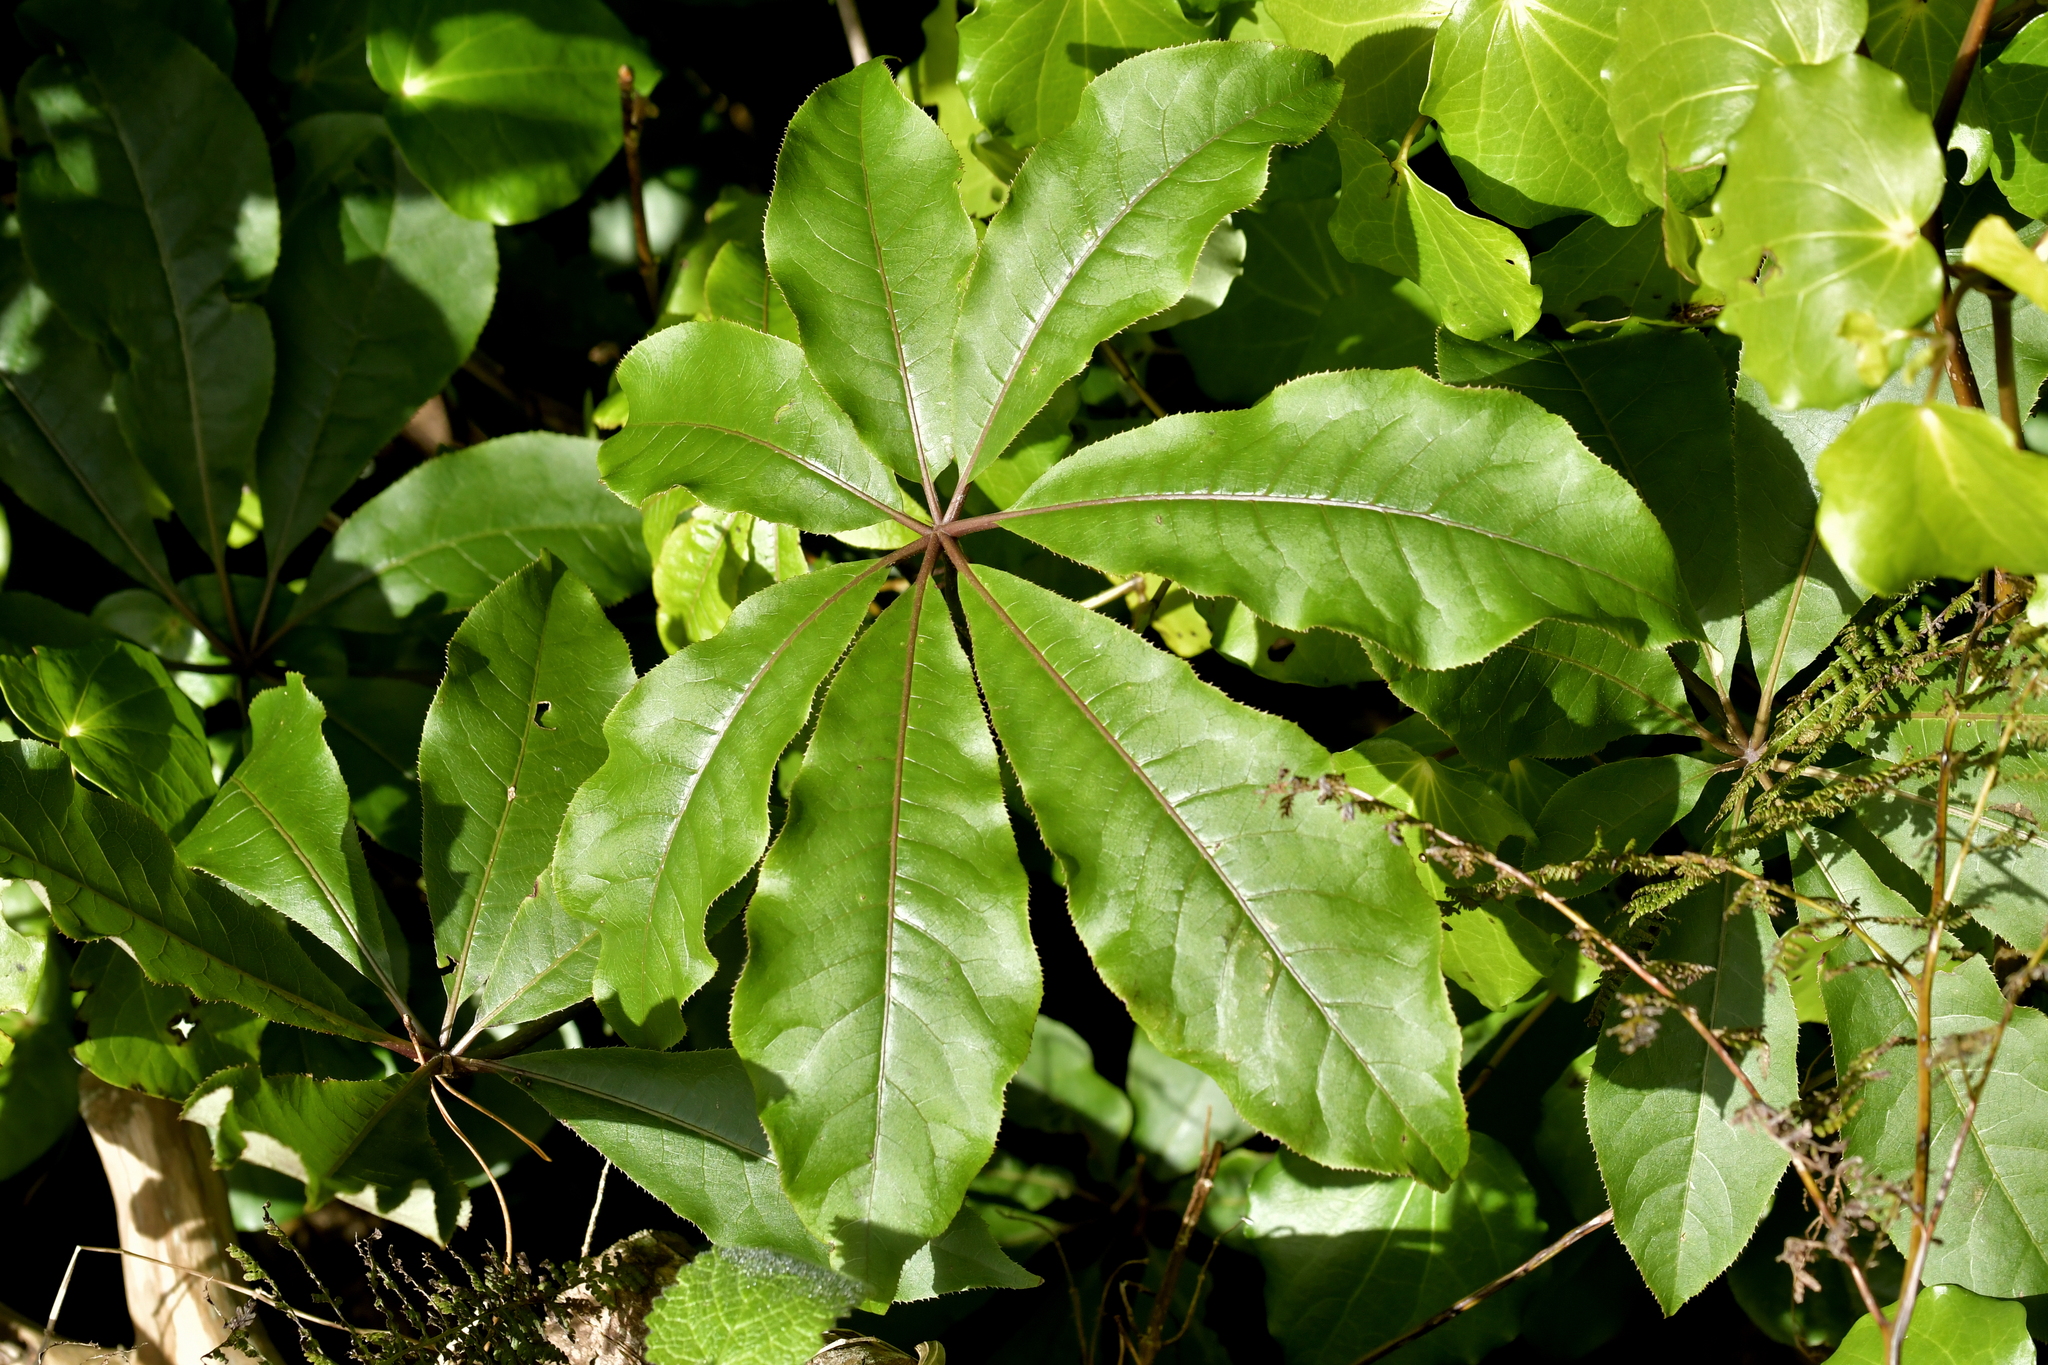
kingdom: Plantae
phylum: Tracheophyta
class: Magnoliopsida
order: Apiales
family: Araliaceae
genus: Schefflera
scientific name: Schefflera digitata
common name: Pate
